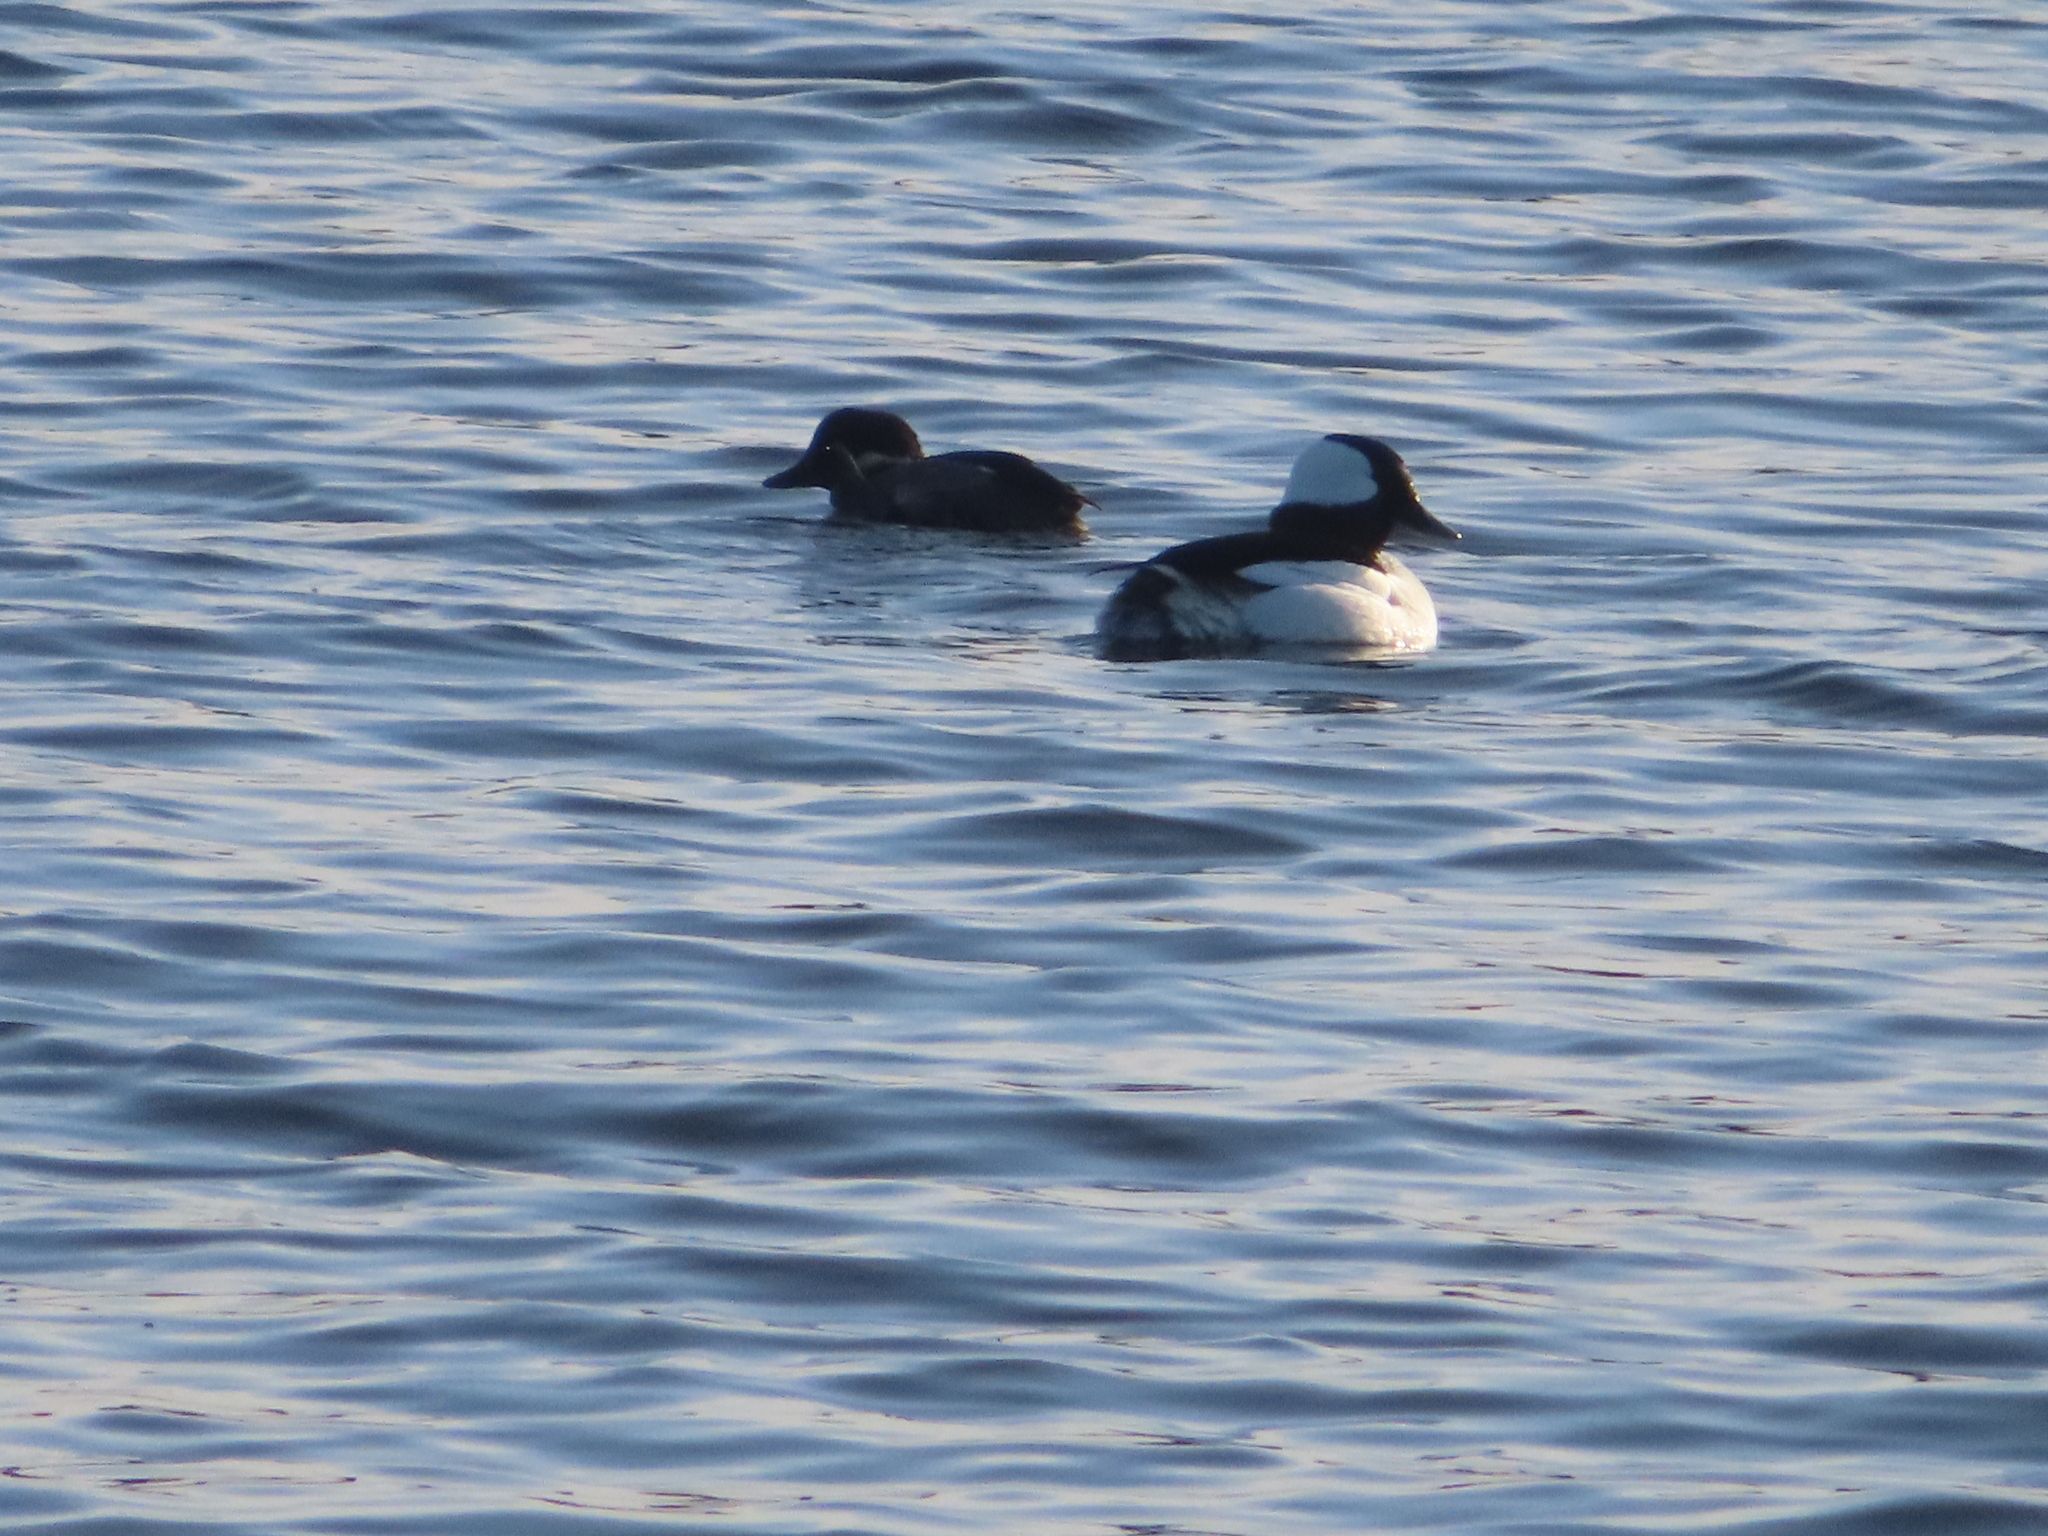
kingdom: Animalia
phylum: Chordata
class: Aves
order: Anseriformes
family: Anatidae
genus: Bucephala
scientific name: Bucephala albeola
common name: Bufflehead
